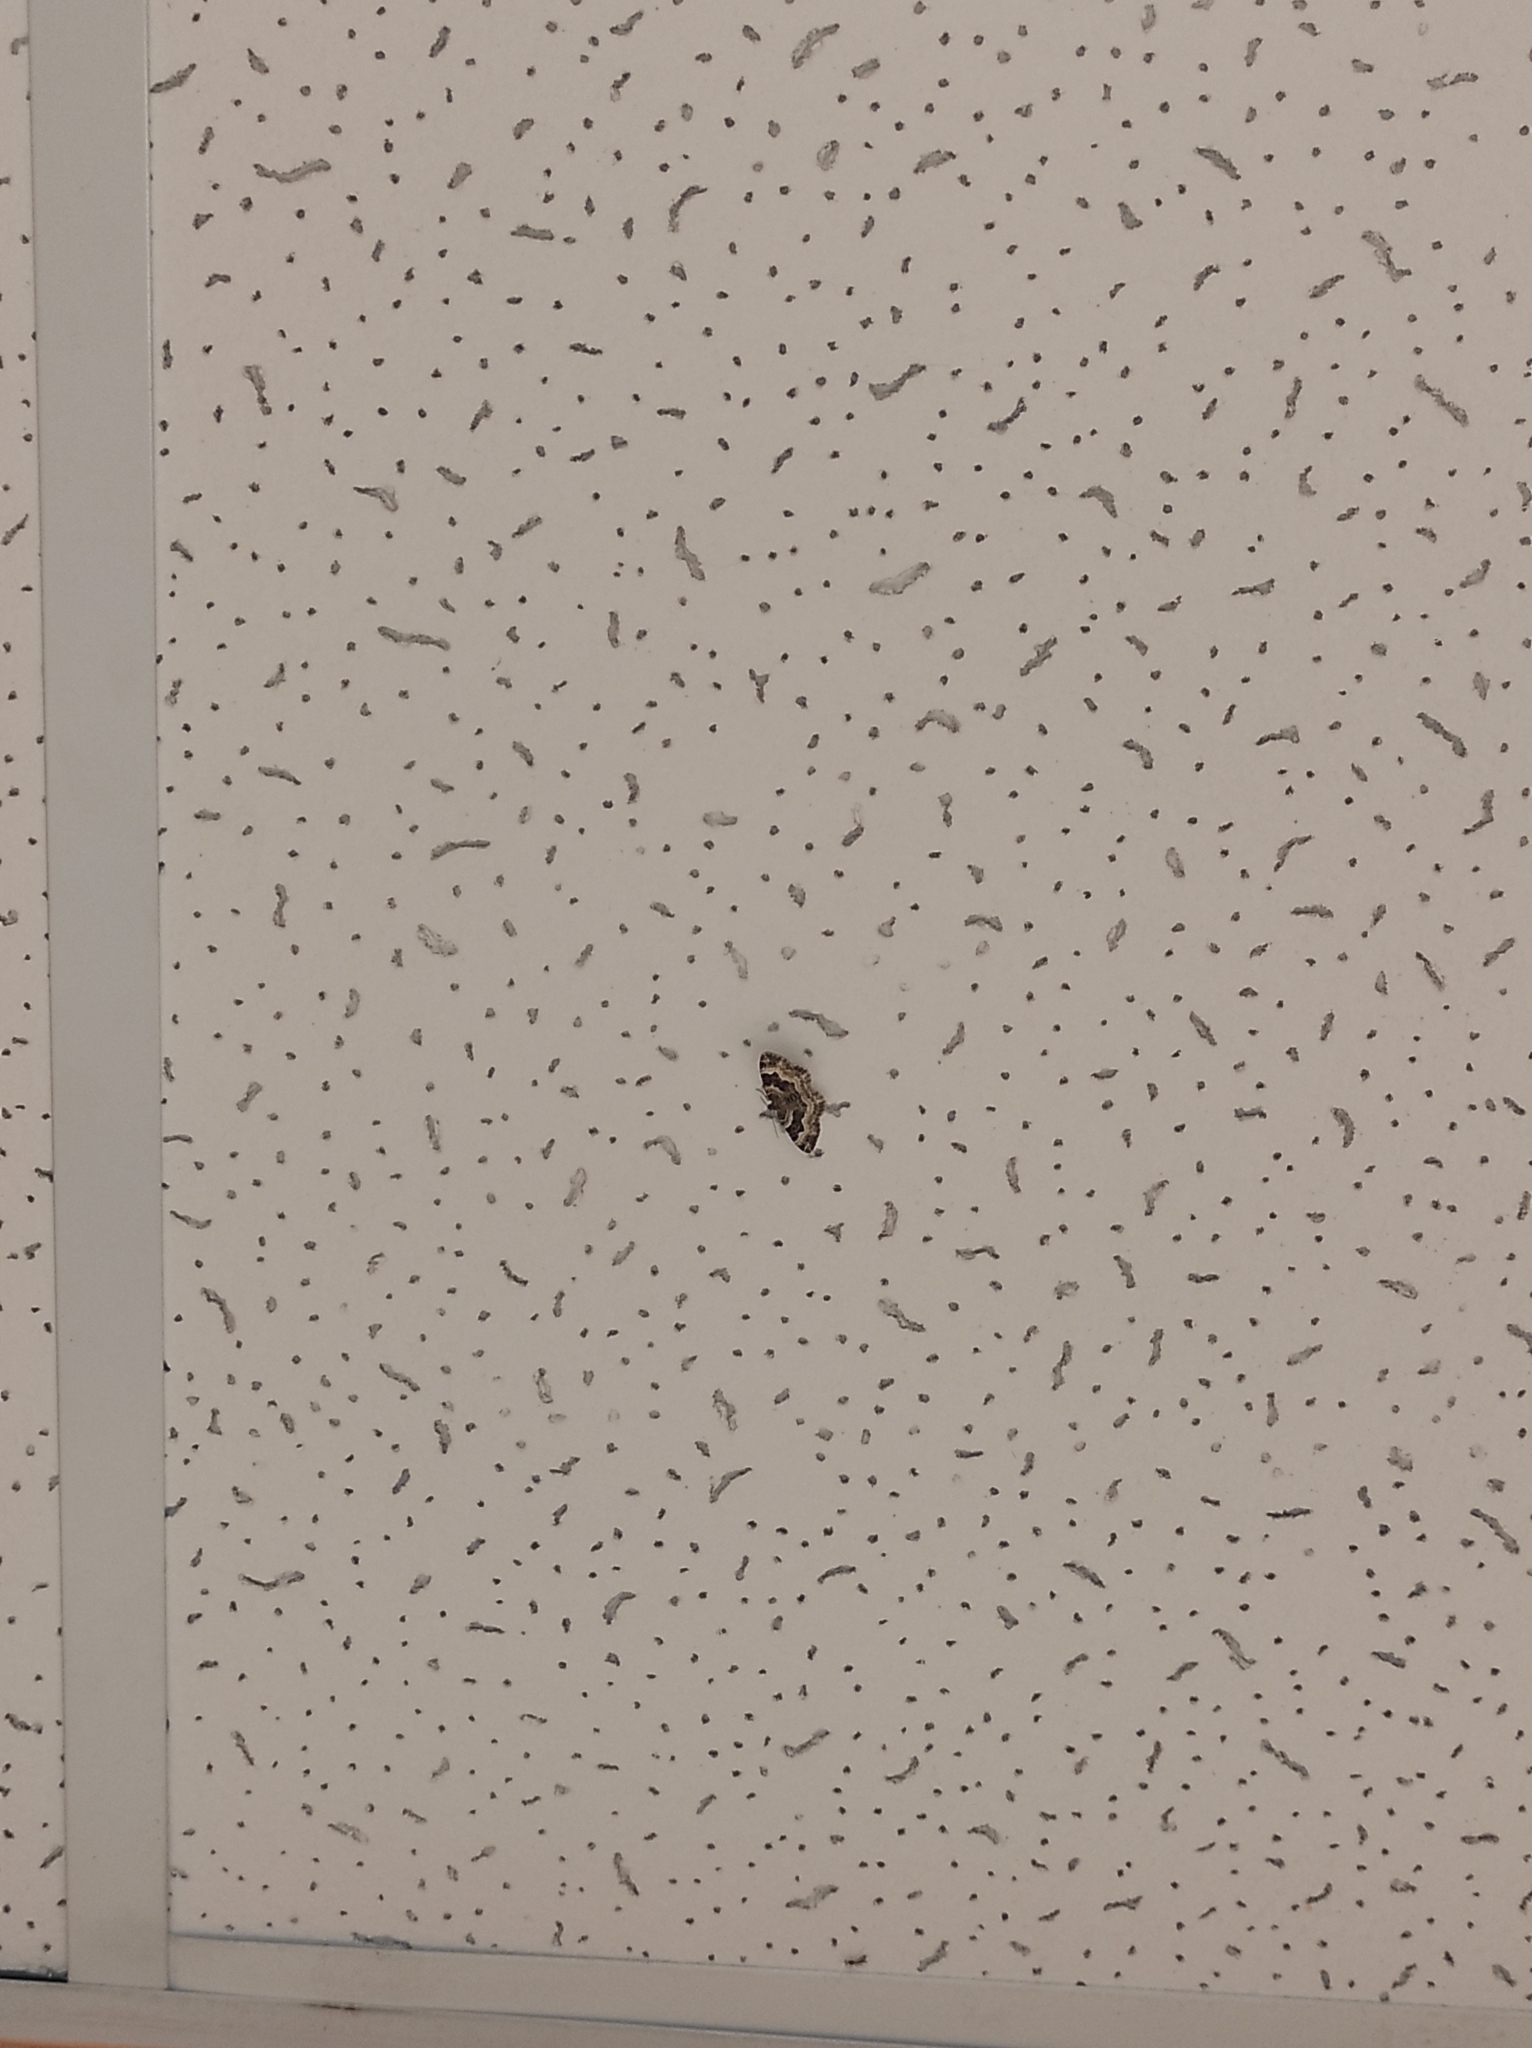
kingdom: Animalia
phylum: Arthropoda
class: Insecta
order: Lepidoptera
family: Geometridae
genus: Epirrhoe
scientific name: Epirrhoe alternata
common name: Common carpet
